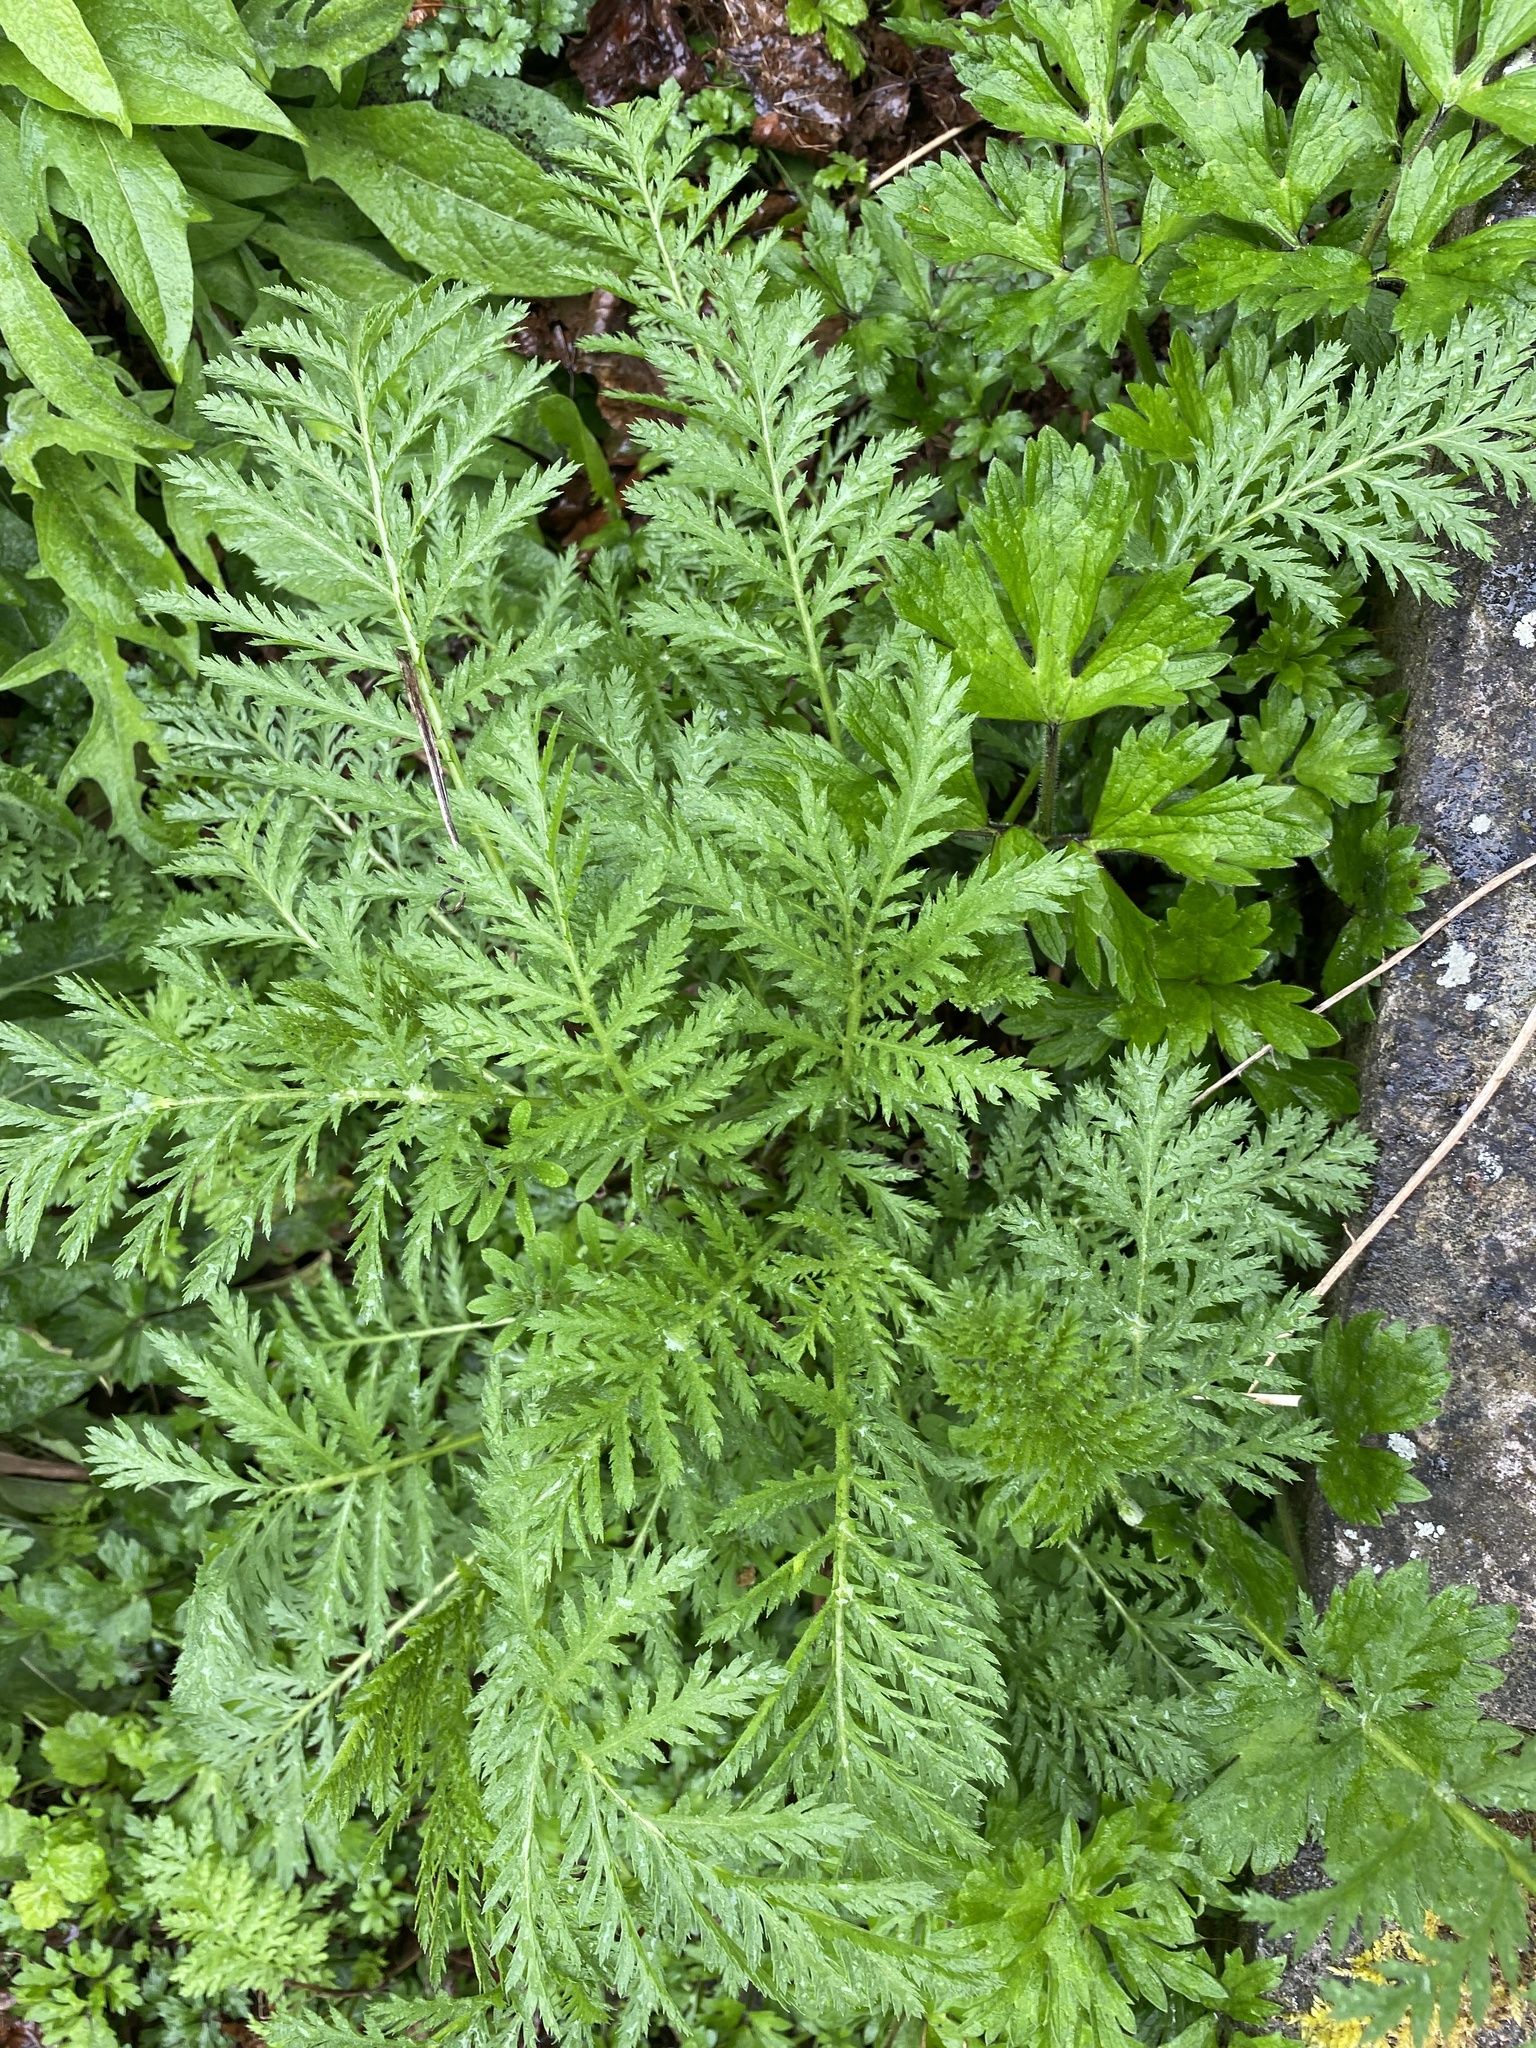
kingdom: Plantae
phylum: Tracheophyta
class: Magnoliopsida
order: Asterales
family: Asteraceae
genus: Tanacetum
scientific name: Tanacetum vulgare
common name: Common tansy
